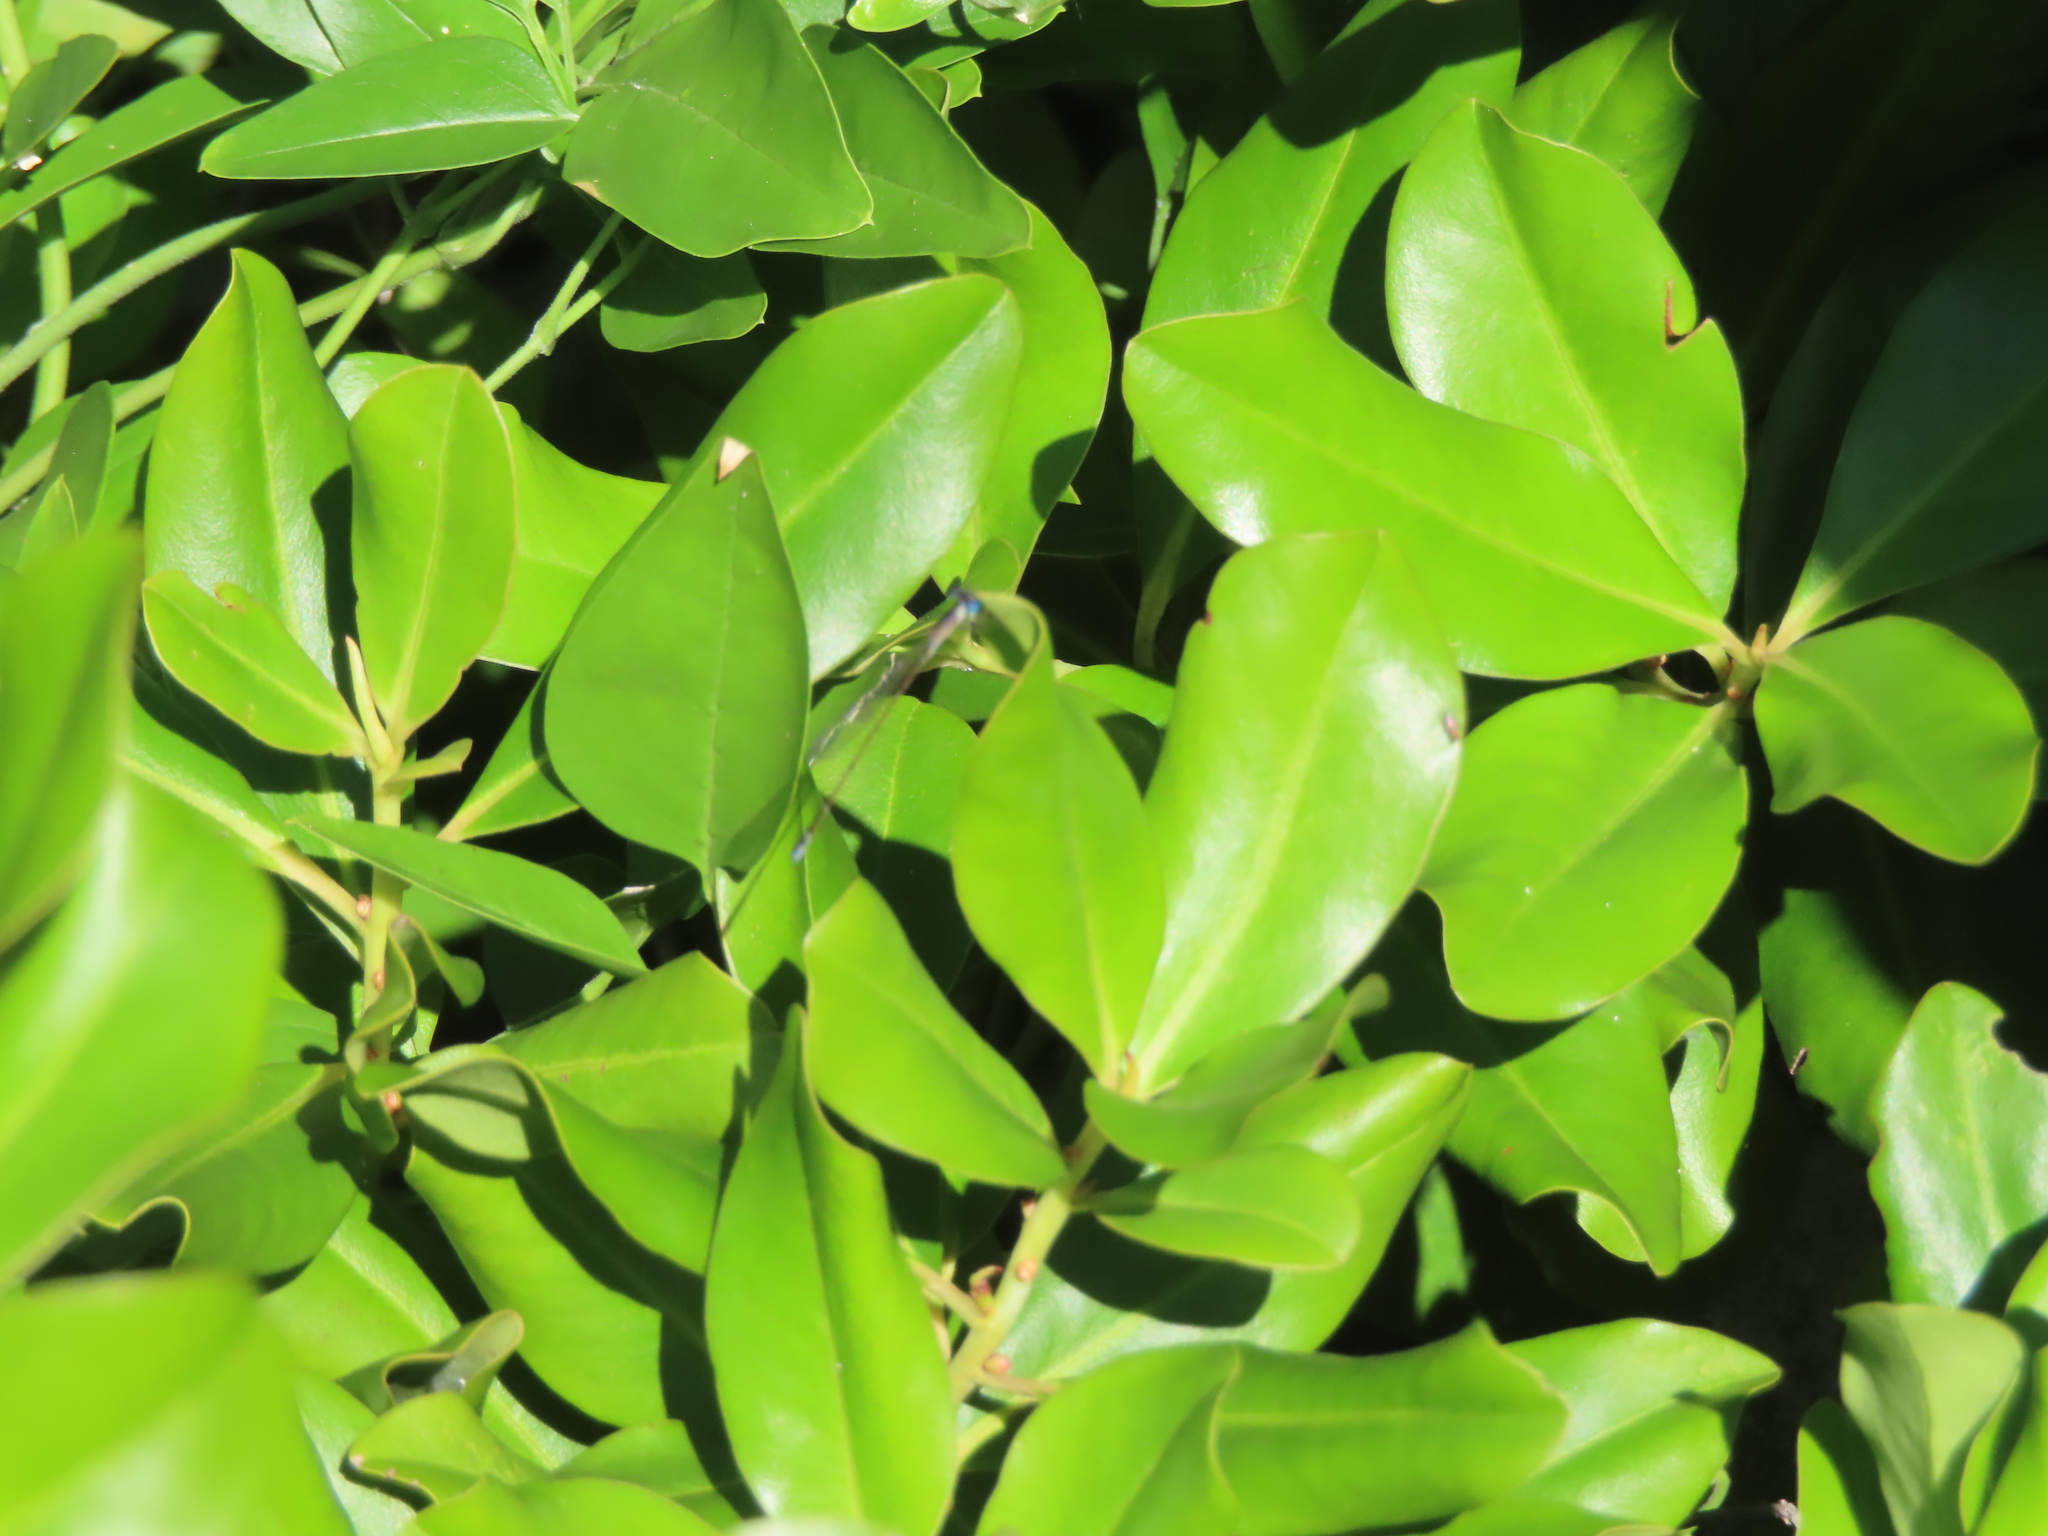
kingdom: Animalia
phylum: Arthropoda
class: Insecta
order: Odonata
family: Coenagrionidae
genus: Nehalennia
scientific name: Nehalennia pallidula
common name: Everglades sprite
